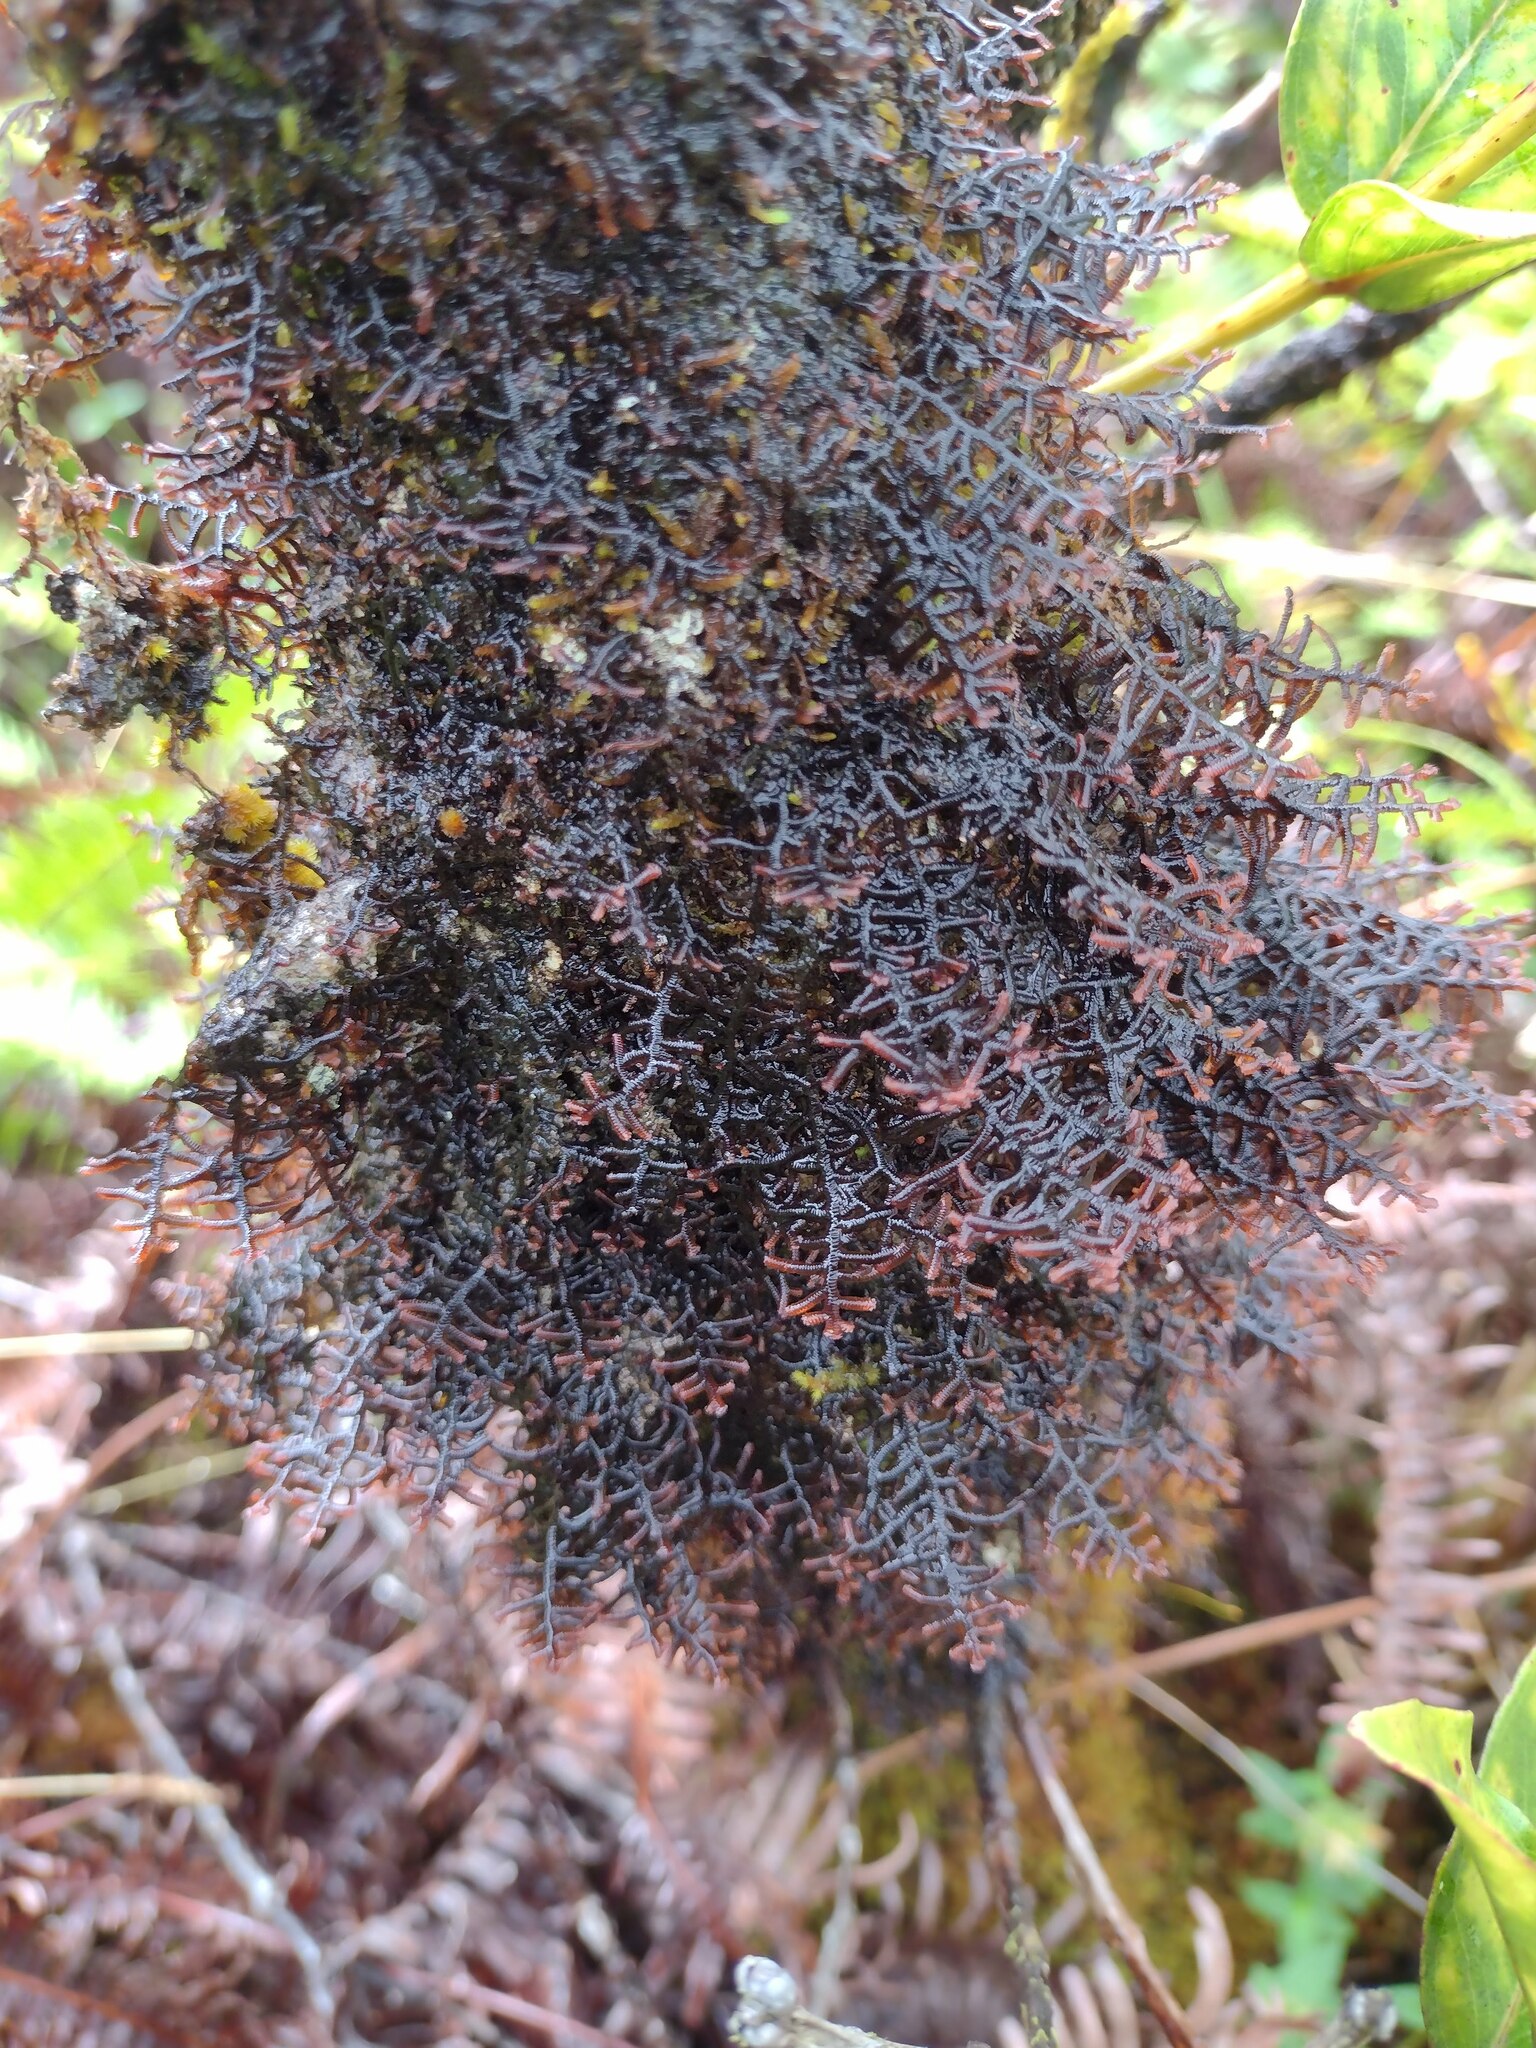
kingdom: Plantae
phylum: Marchantiophyta
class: Jungermanniopsida
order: Porellales
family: Frullaniaceae
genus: Frullania
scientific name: Frullania apiculata
